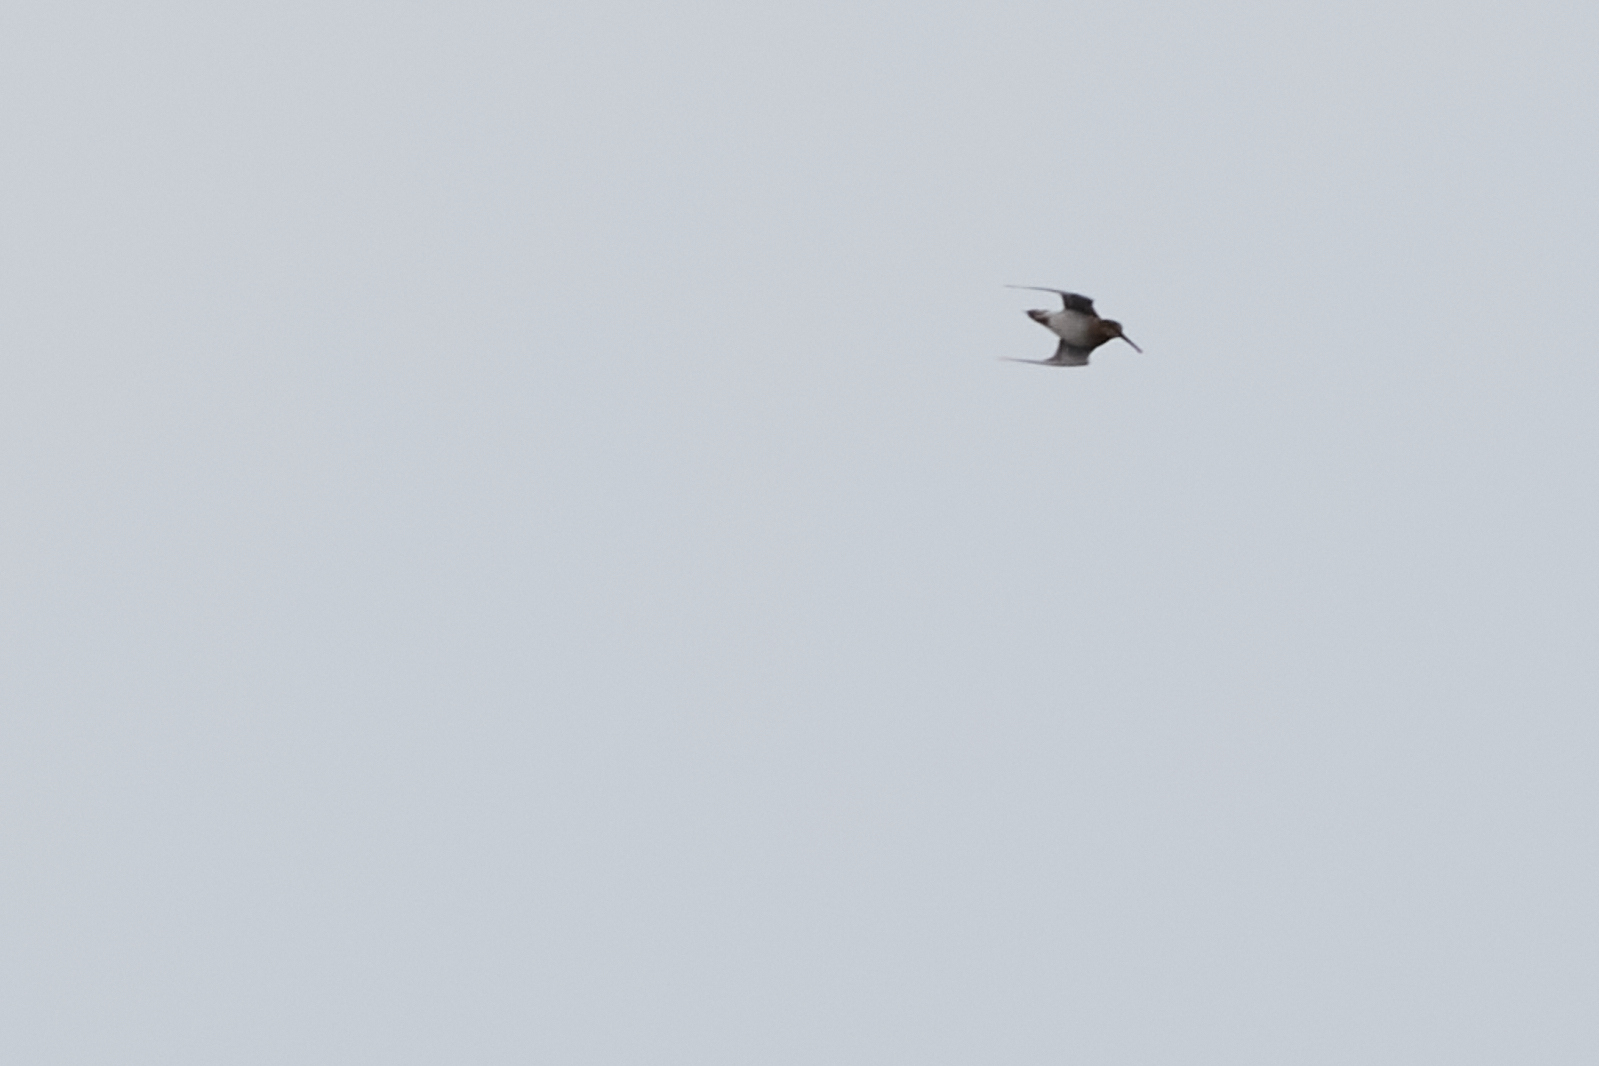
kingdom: Animalia
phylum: Chordata
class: Aves
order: Charadriiformes
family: Scolopacidae
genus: Gallinago
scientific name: Gallinago delicata
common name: Wilson's snipe
